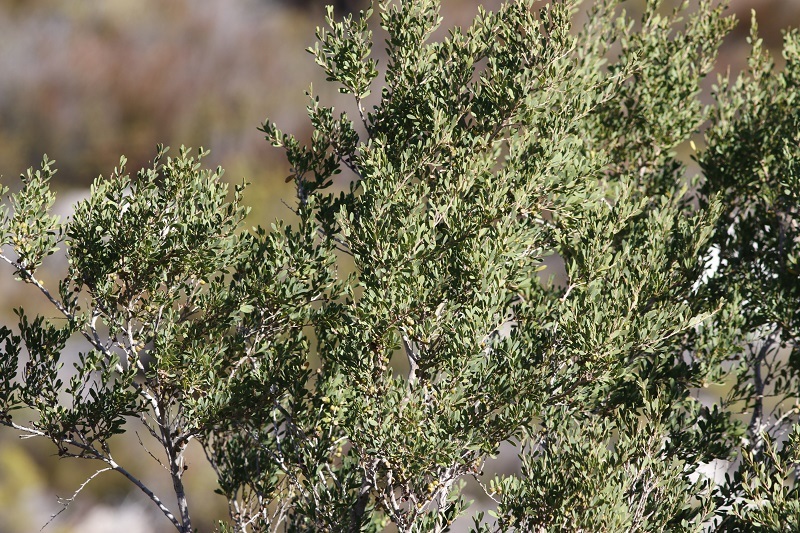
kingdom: Plantae
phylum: Tracheophyta
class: Magnoliopsida
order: Myrtales
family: Myrtaceae
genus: Leptospermum
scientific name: Leptospermum laevigatum
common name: Australian teatree
